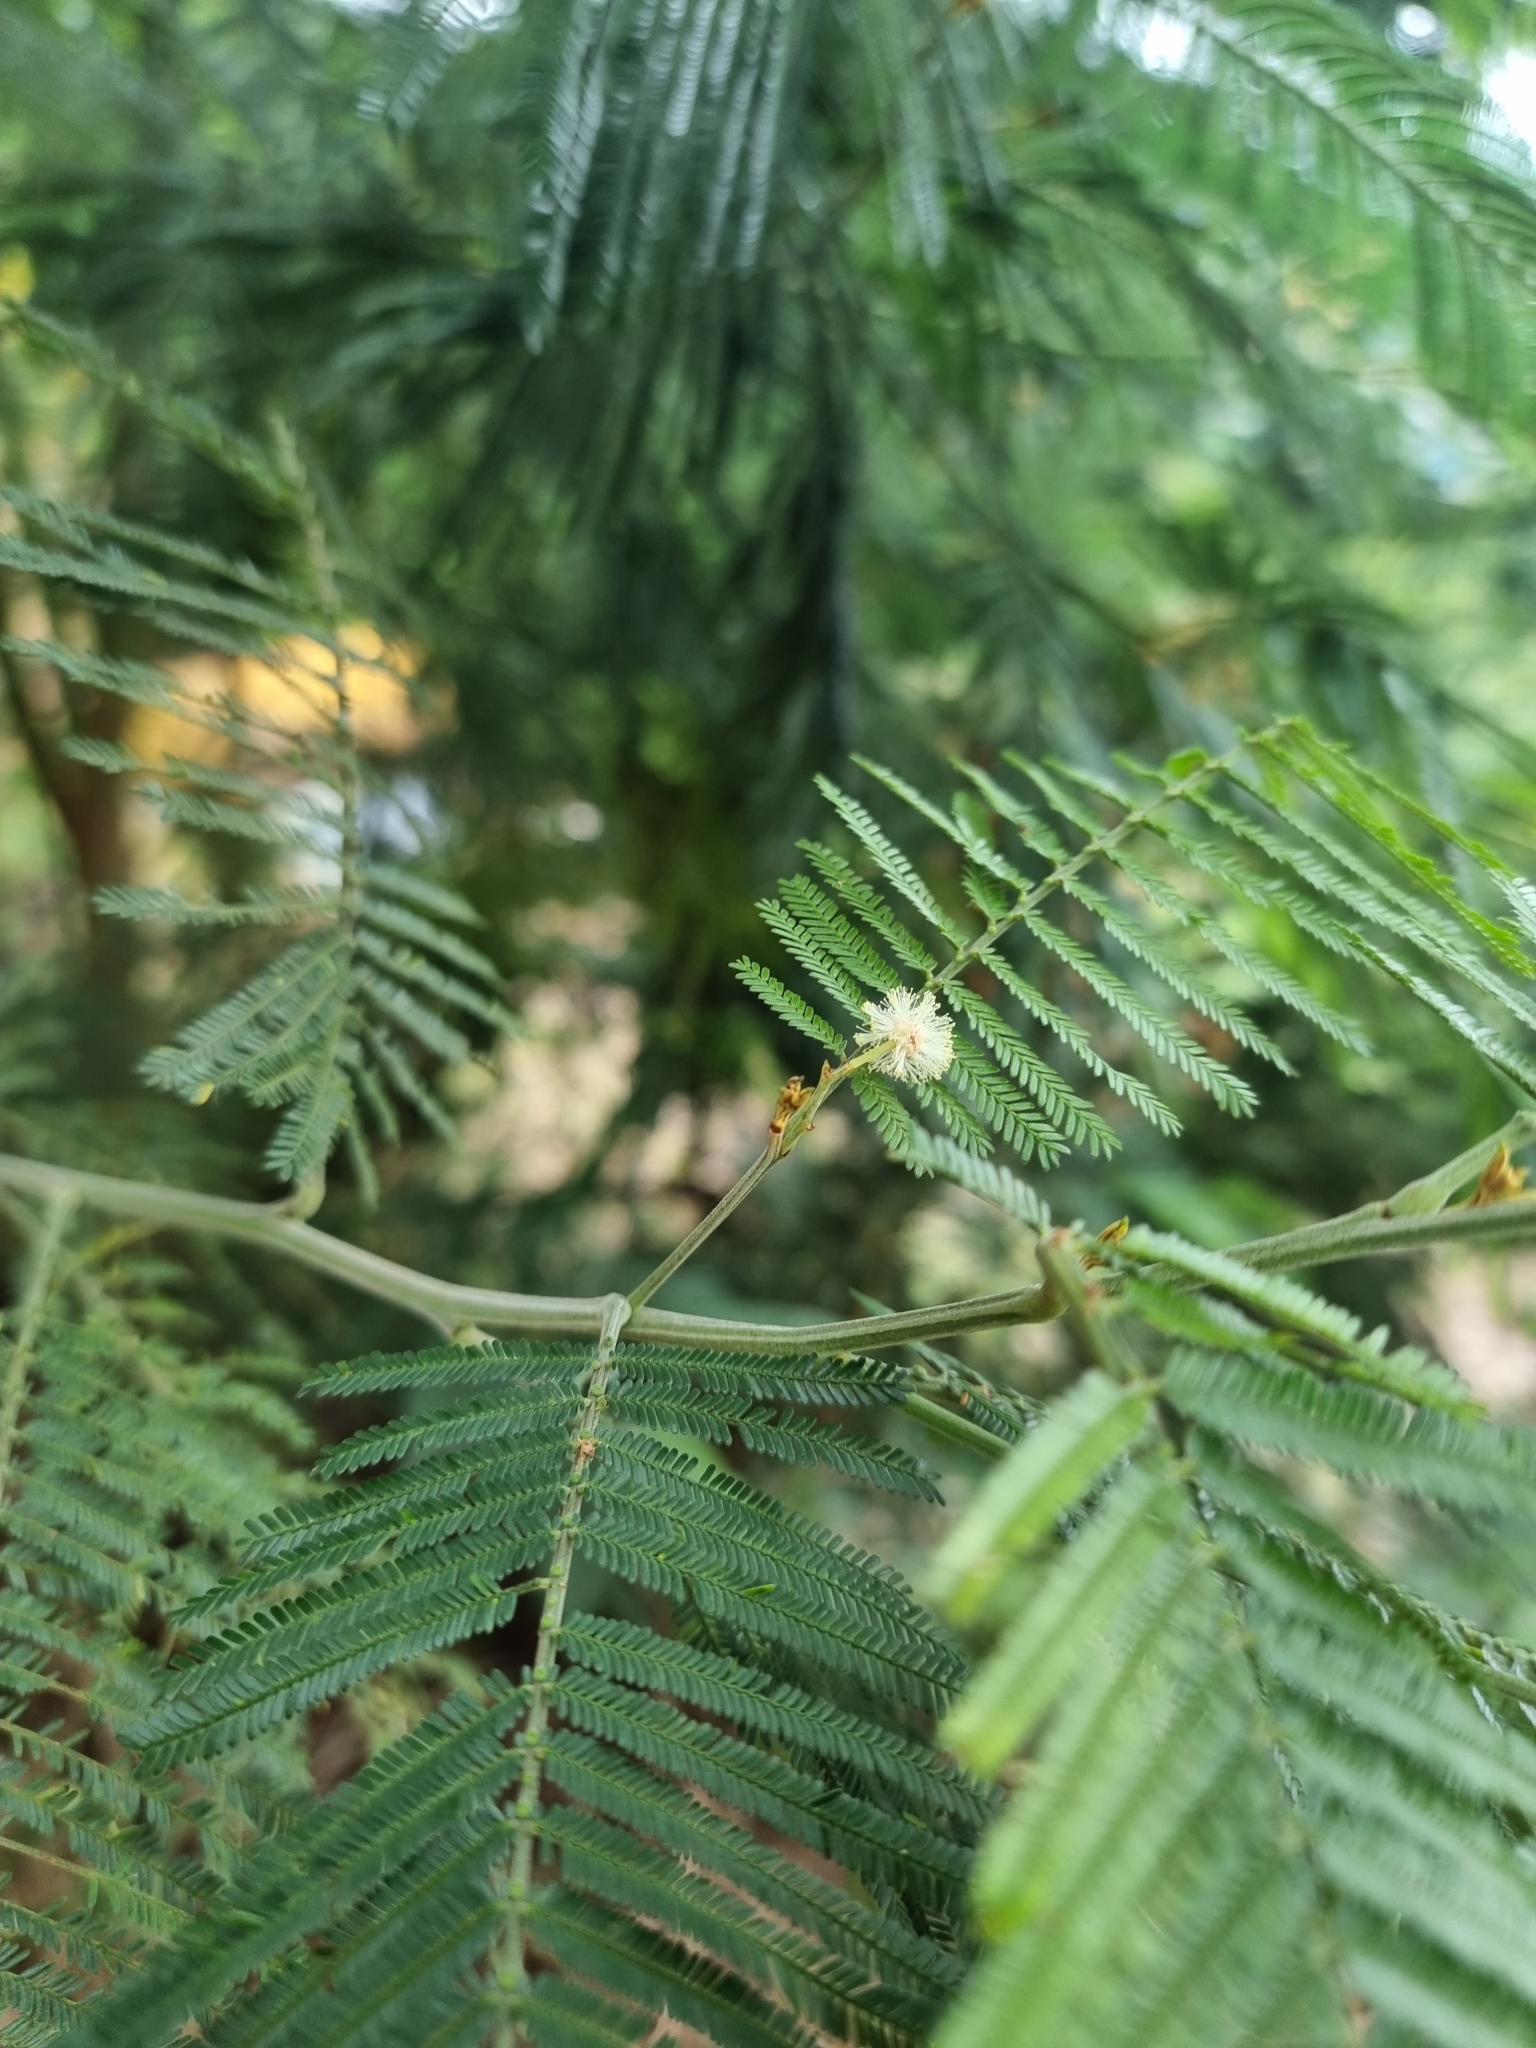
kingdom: Plantae
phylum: Tracheophyta
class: Magnoliopsida
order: Fabales
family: Fabaceae
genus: Acacia
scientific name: Acacia mearnsii
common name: Black wattle
